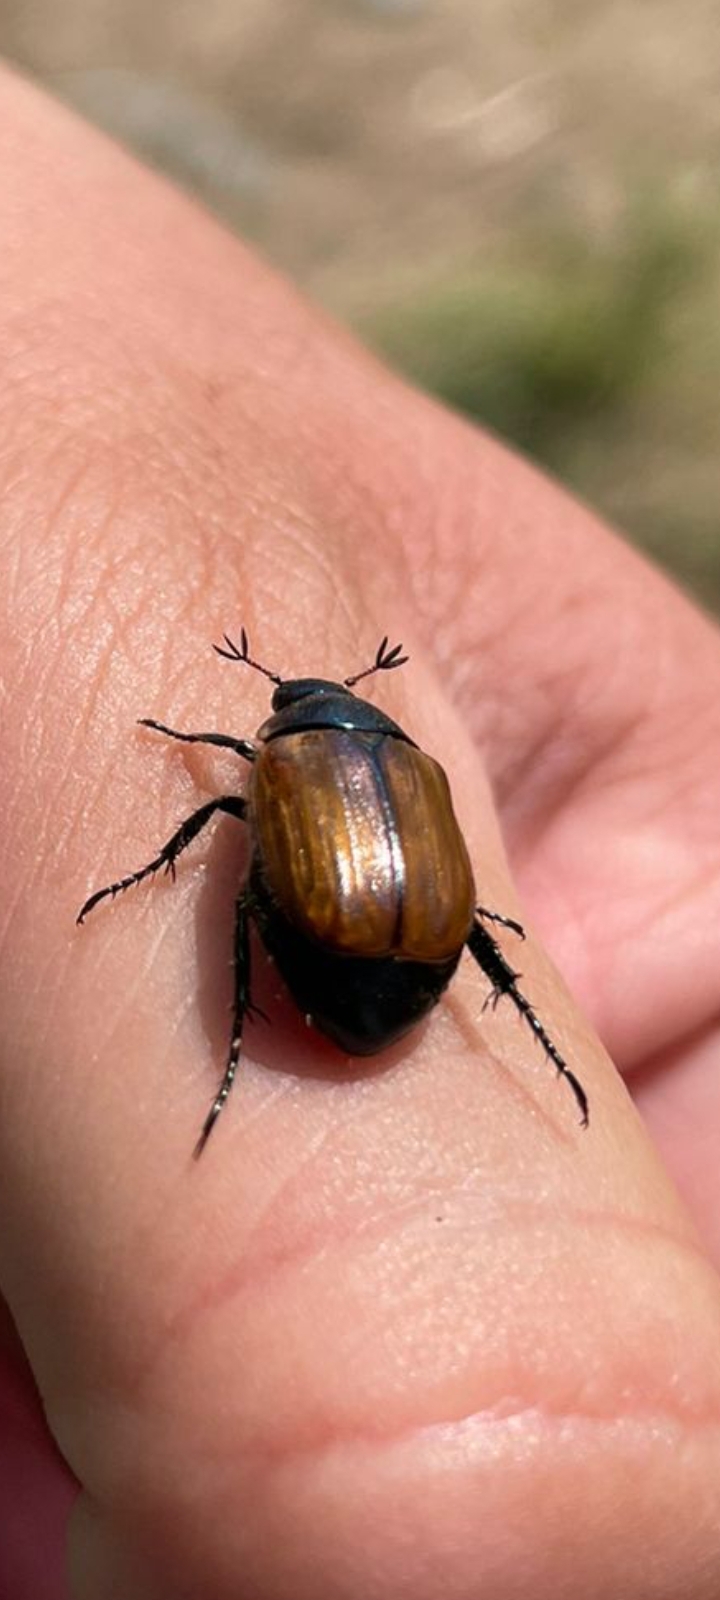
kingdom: Animalia
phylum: Arthropoda
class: Insecta
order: Coleoptera
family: Scarabaeidae
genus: Anomala
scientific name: Anomala dubia
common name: Dune chafer
